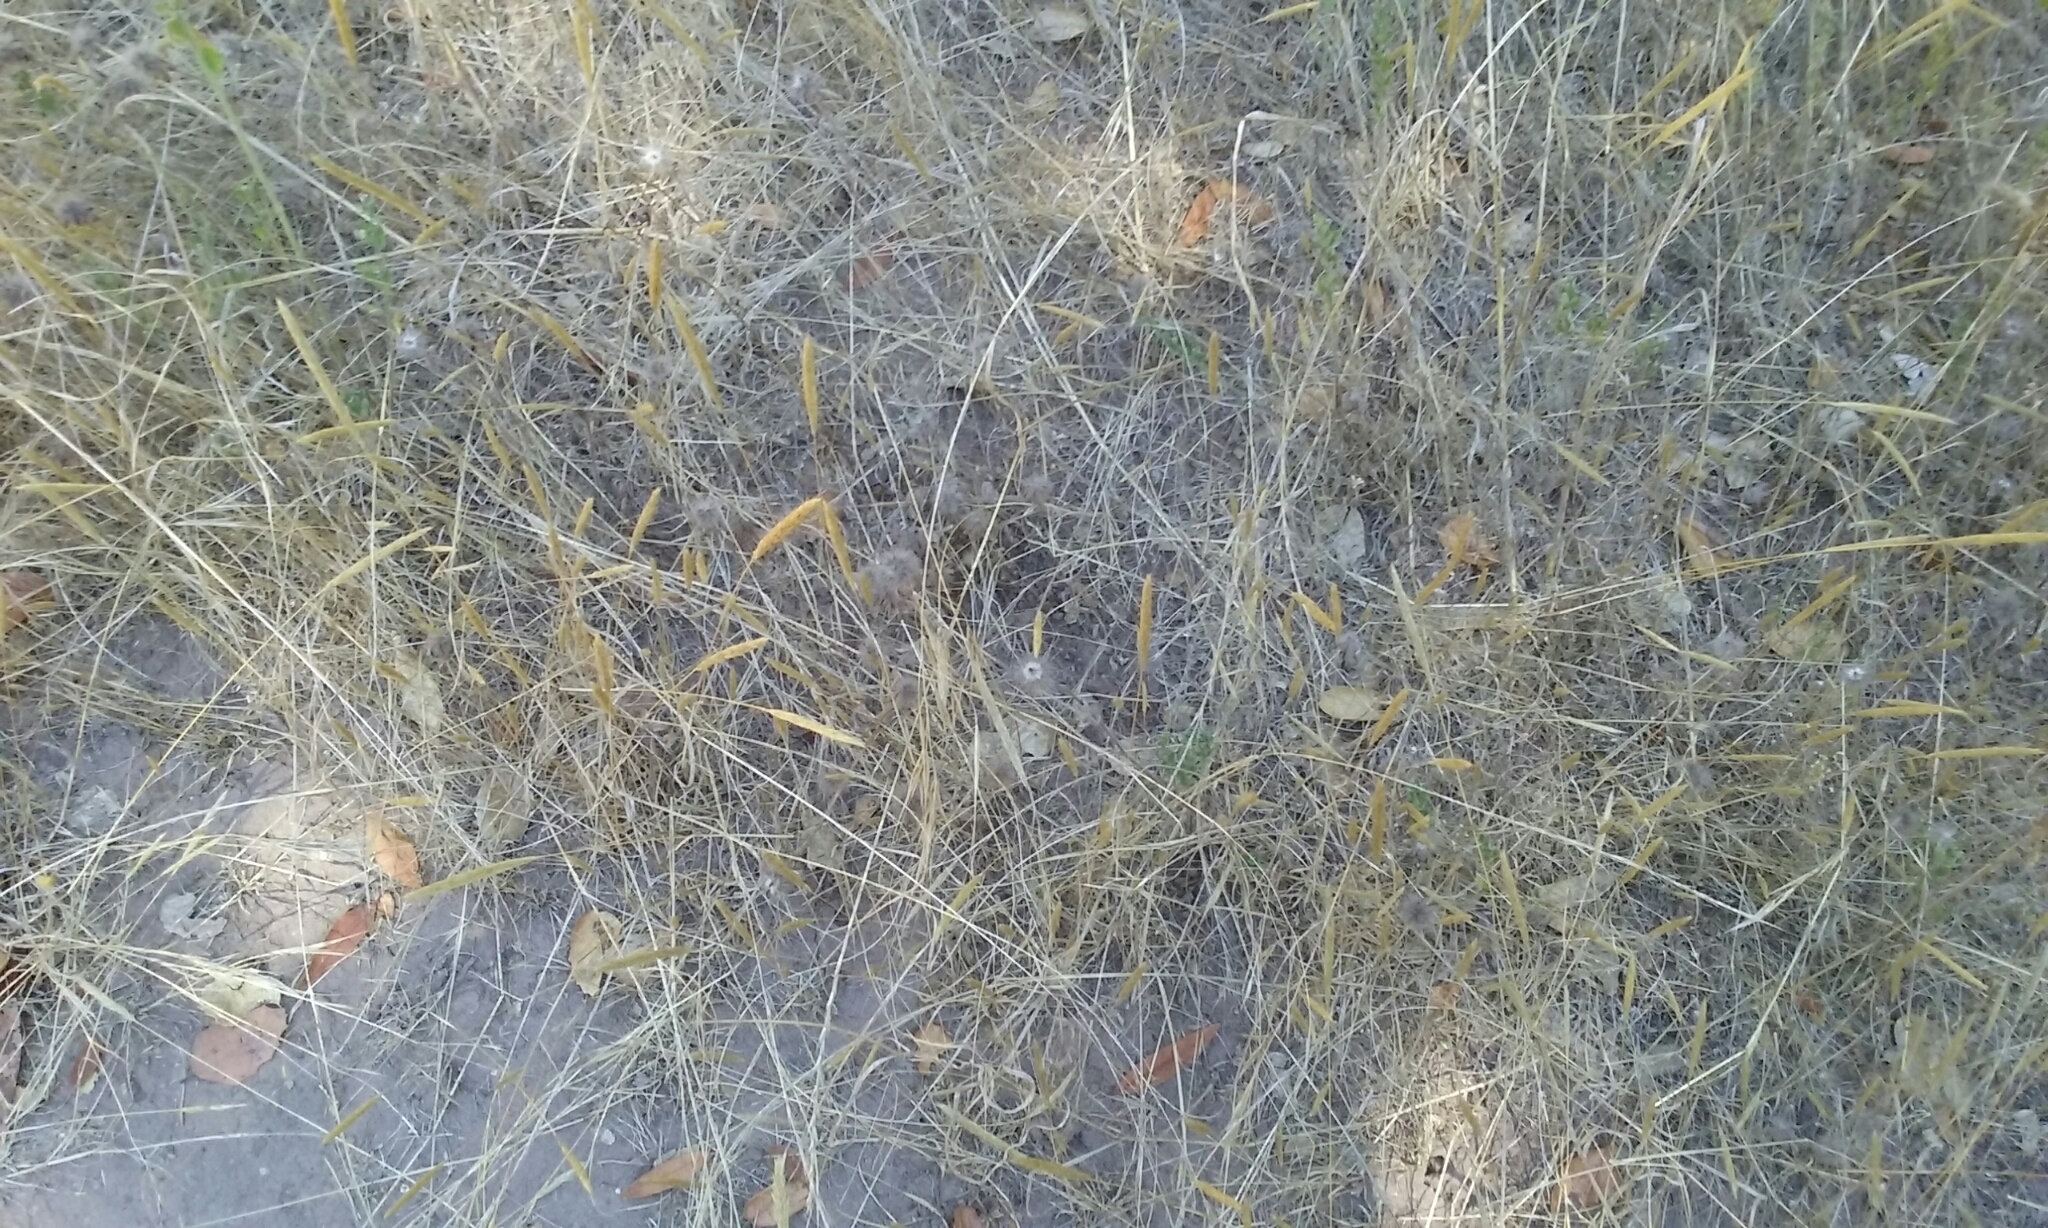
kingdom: Plantae
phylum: Tracheophyta
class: Liliopsida
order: Poales
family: Poaceae
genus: Gastridium
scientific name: Gastridium phleoides
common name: Nit grass
